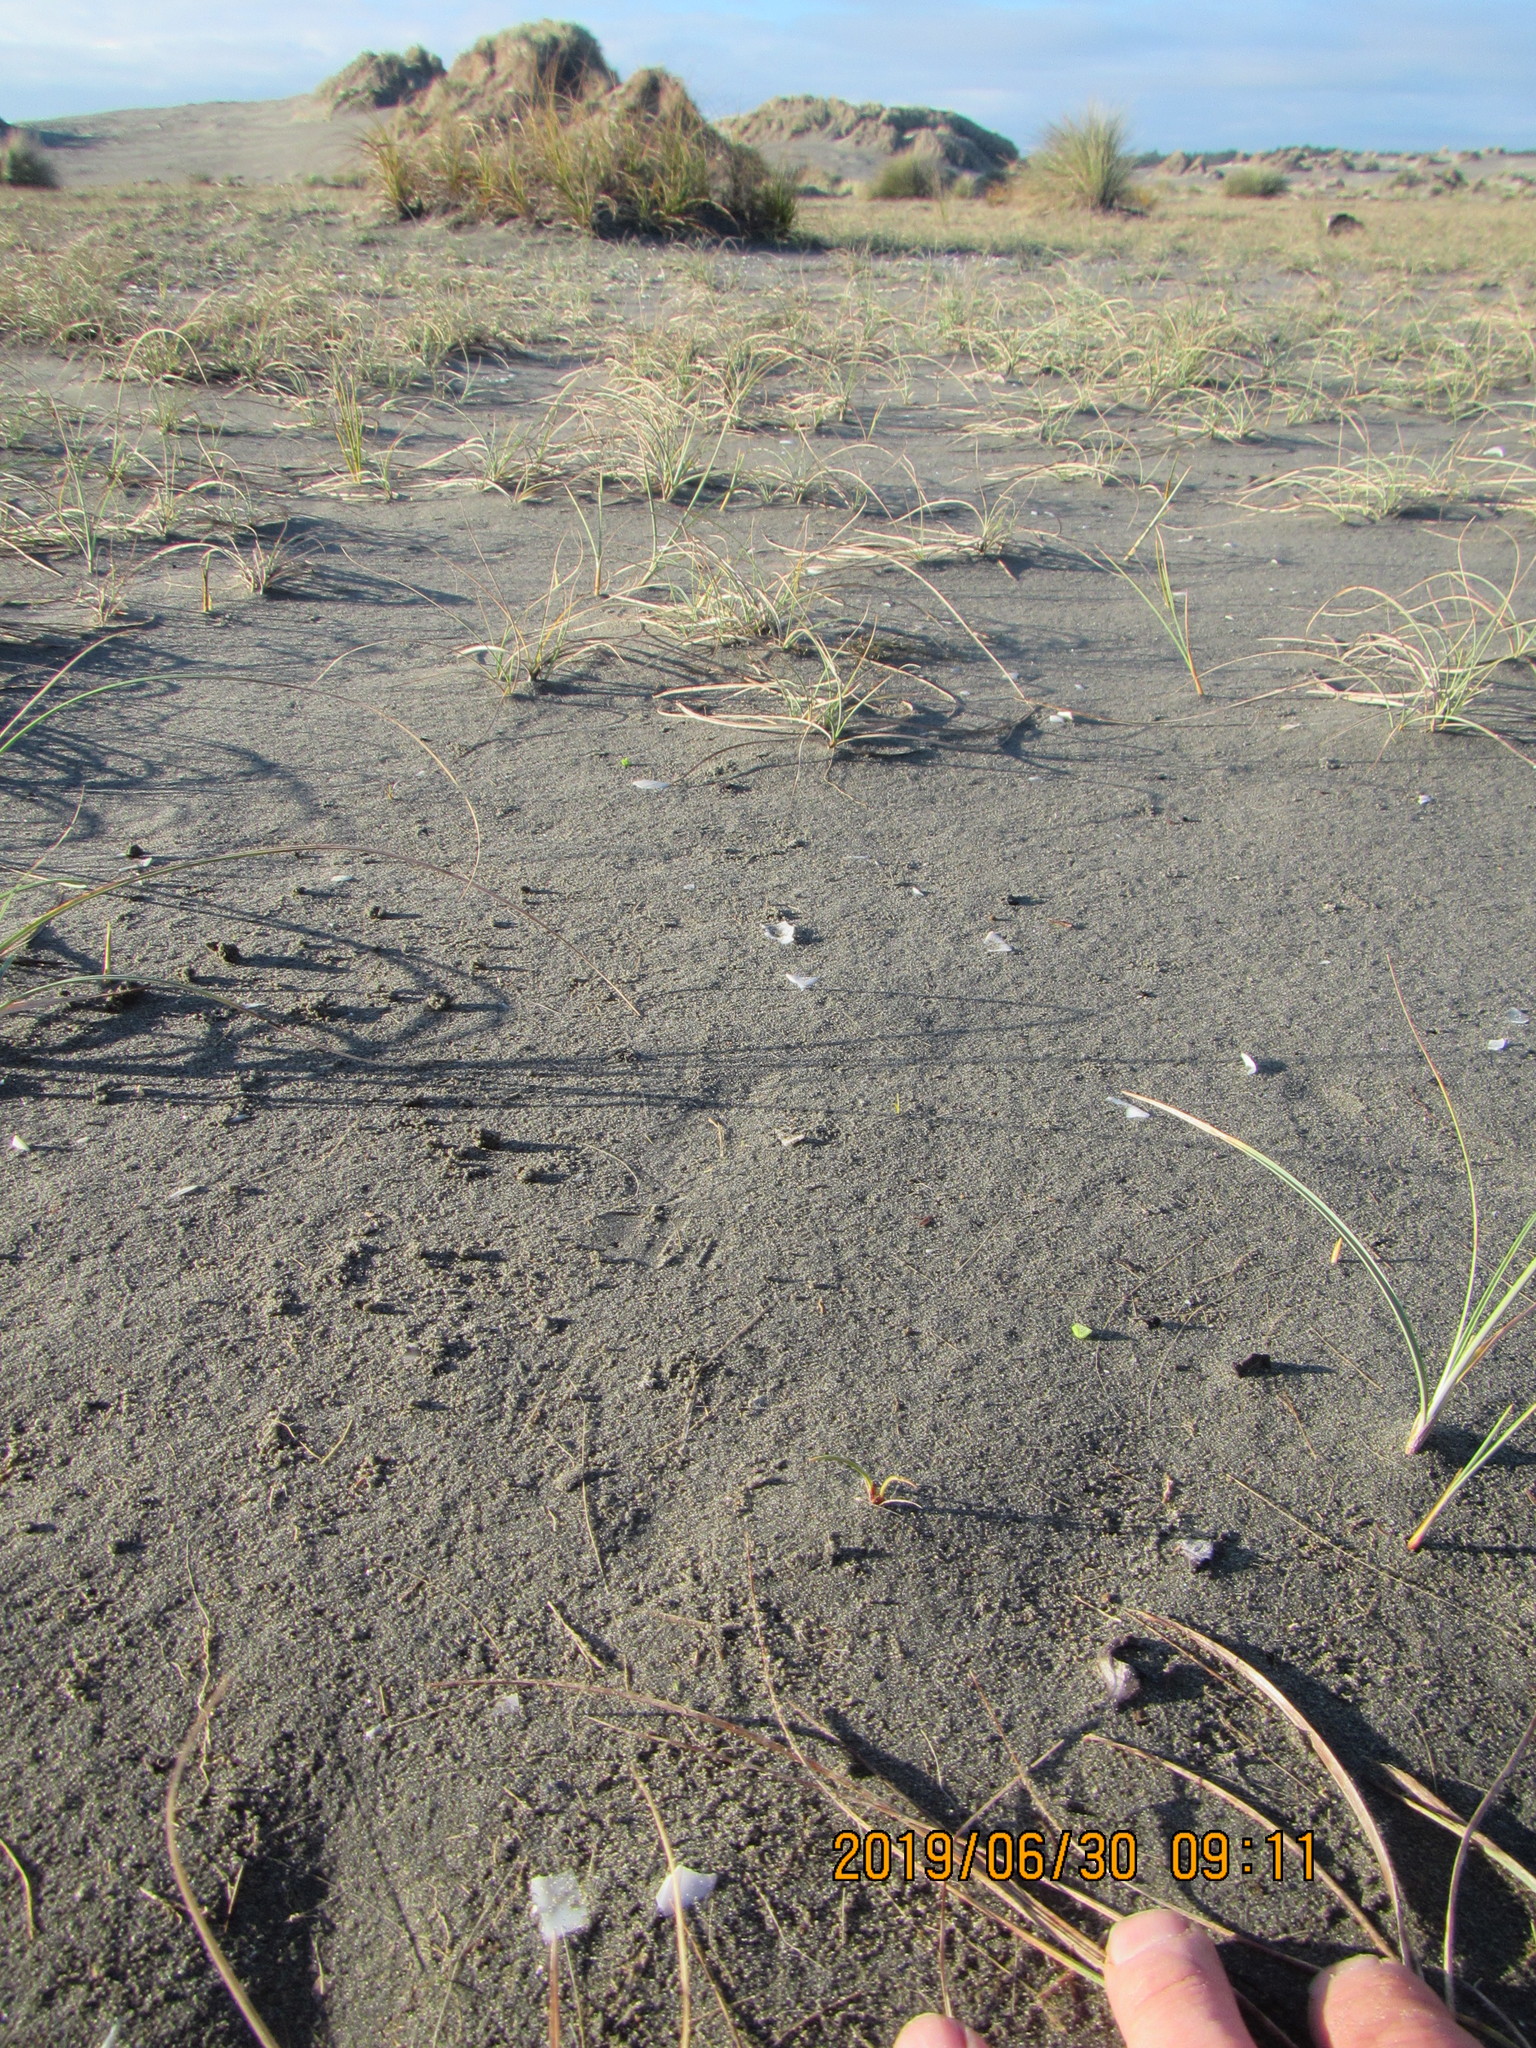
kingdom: Plantae
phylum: Tracheophyta
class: Liliopsida
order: Poales
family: Cyperaceae
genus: Carex
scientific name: Carex pumila
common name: Dwarf sedge
